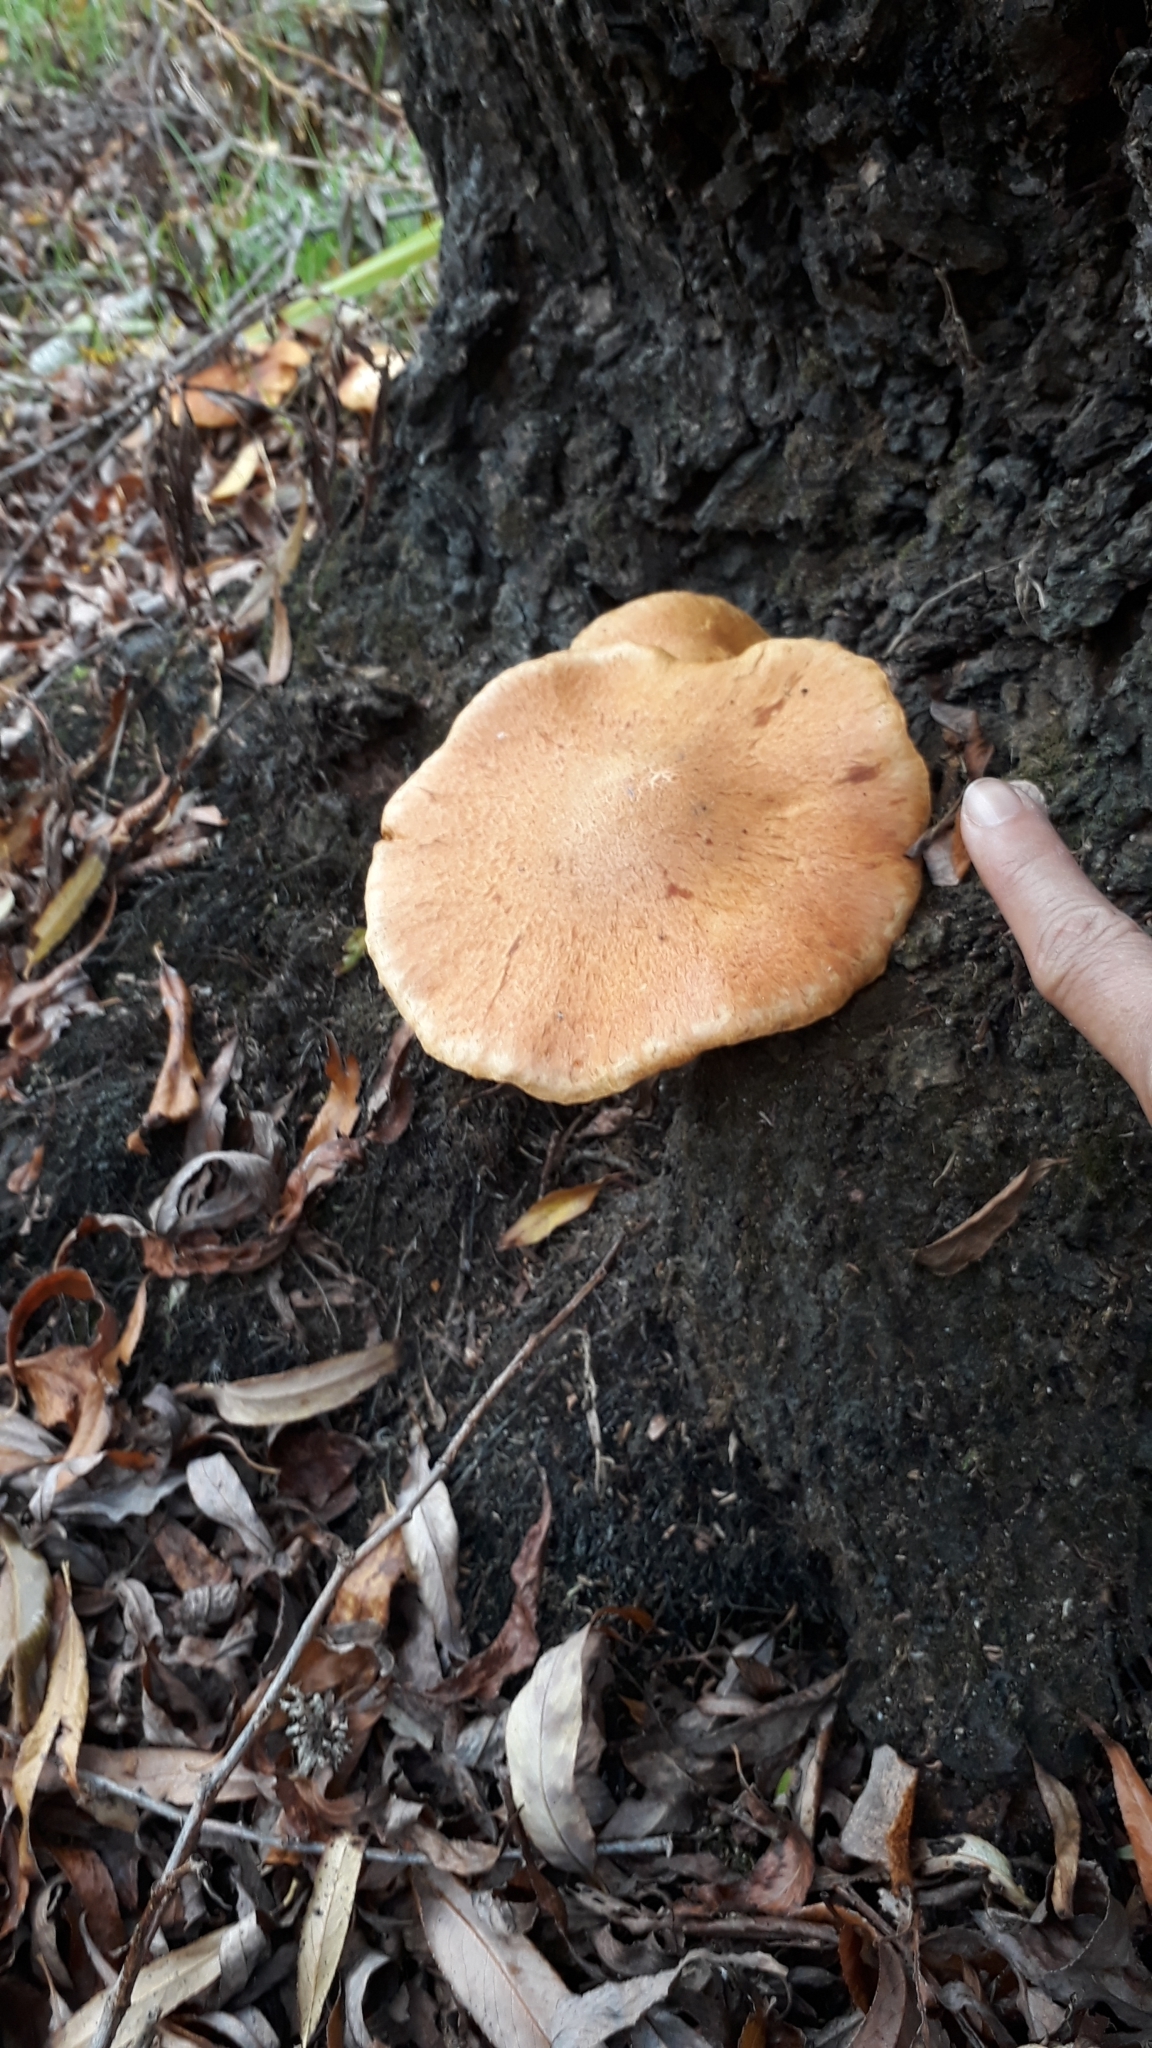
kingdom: Fungi
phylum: Basidiomycota
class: Agaricomycetes
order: Agaricales
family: Hymenogastraceae
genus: Gymnopilus
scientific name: Gymnopilus junonius
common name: Spectacular rustgill
